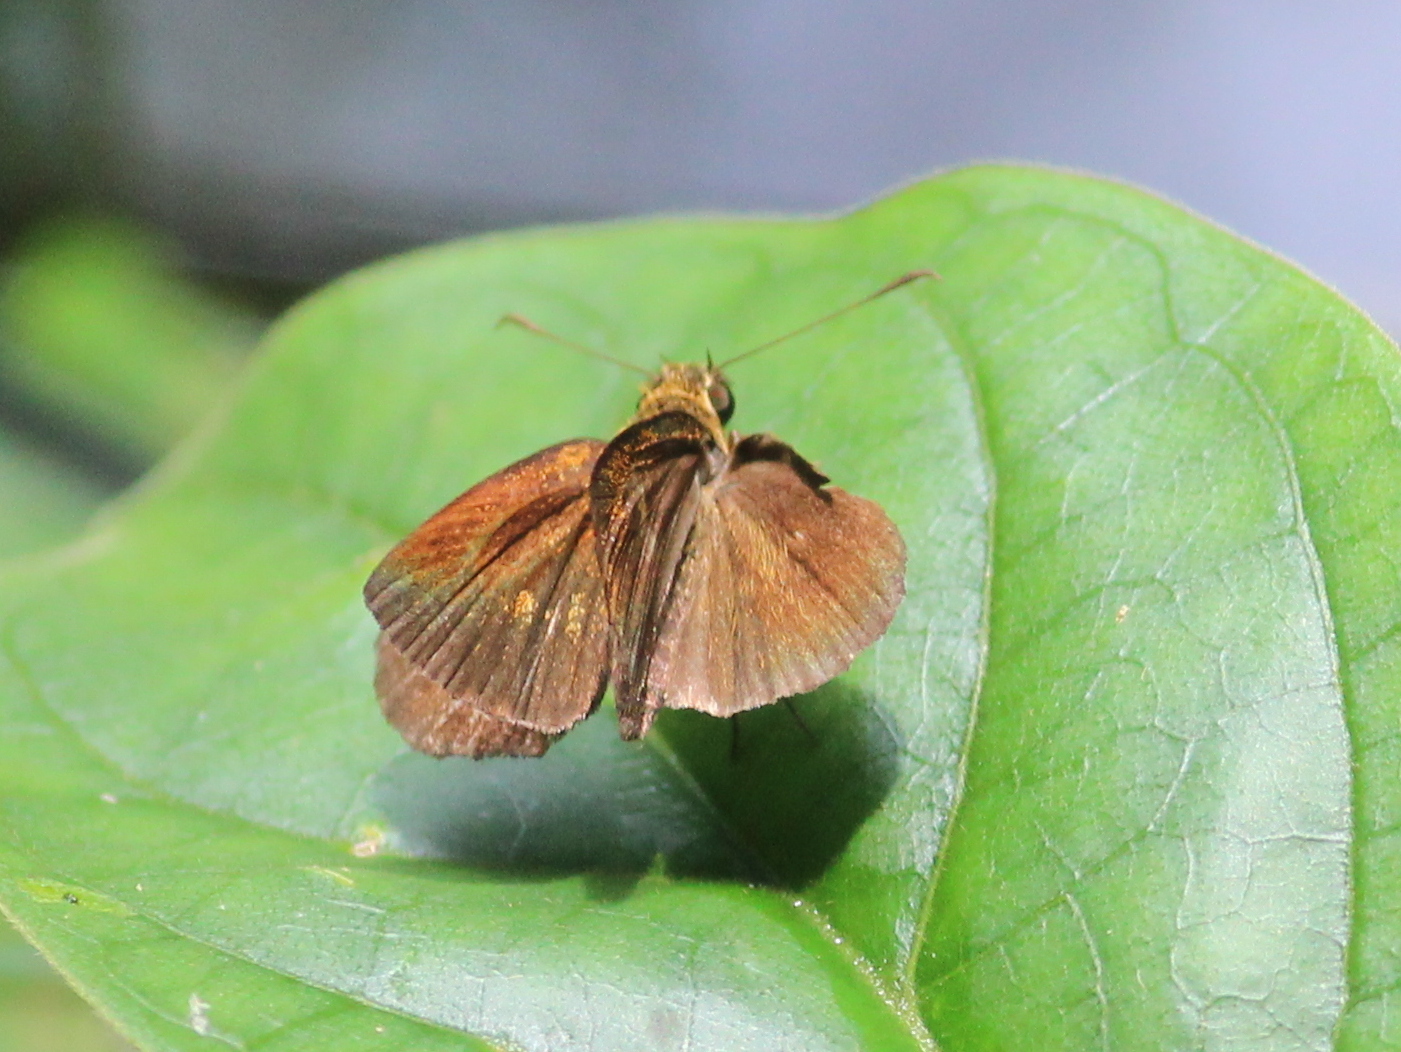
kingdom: Animalia
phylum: Arthropoda
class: Insecta
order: Lepidoptera
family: Hesperiidae
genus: Iambrix
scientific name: Iambrix salsala
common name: Chestnut bob
